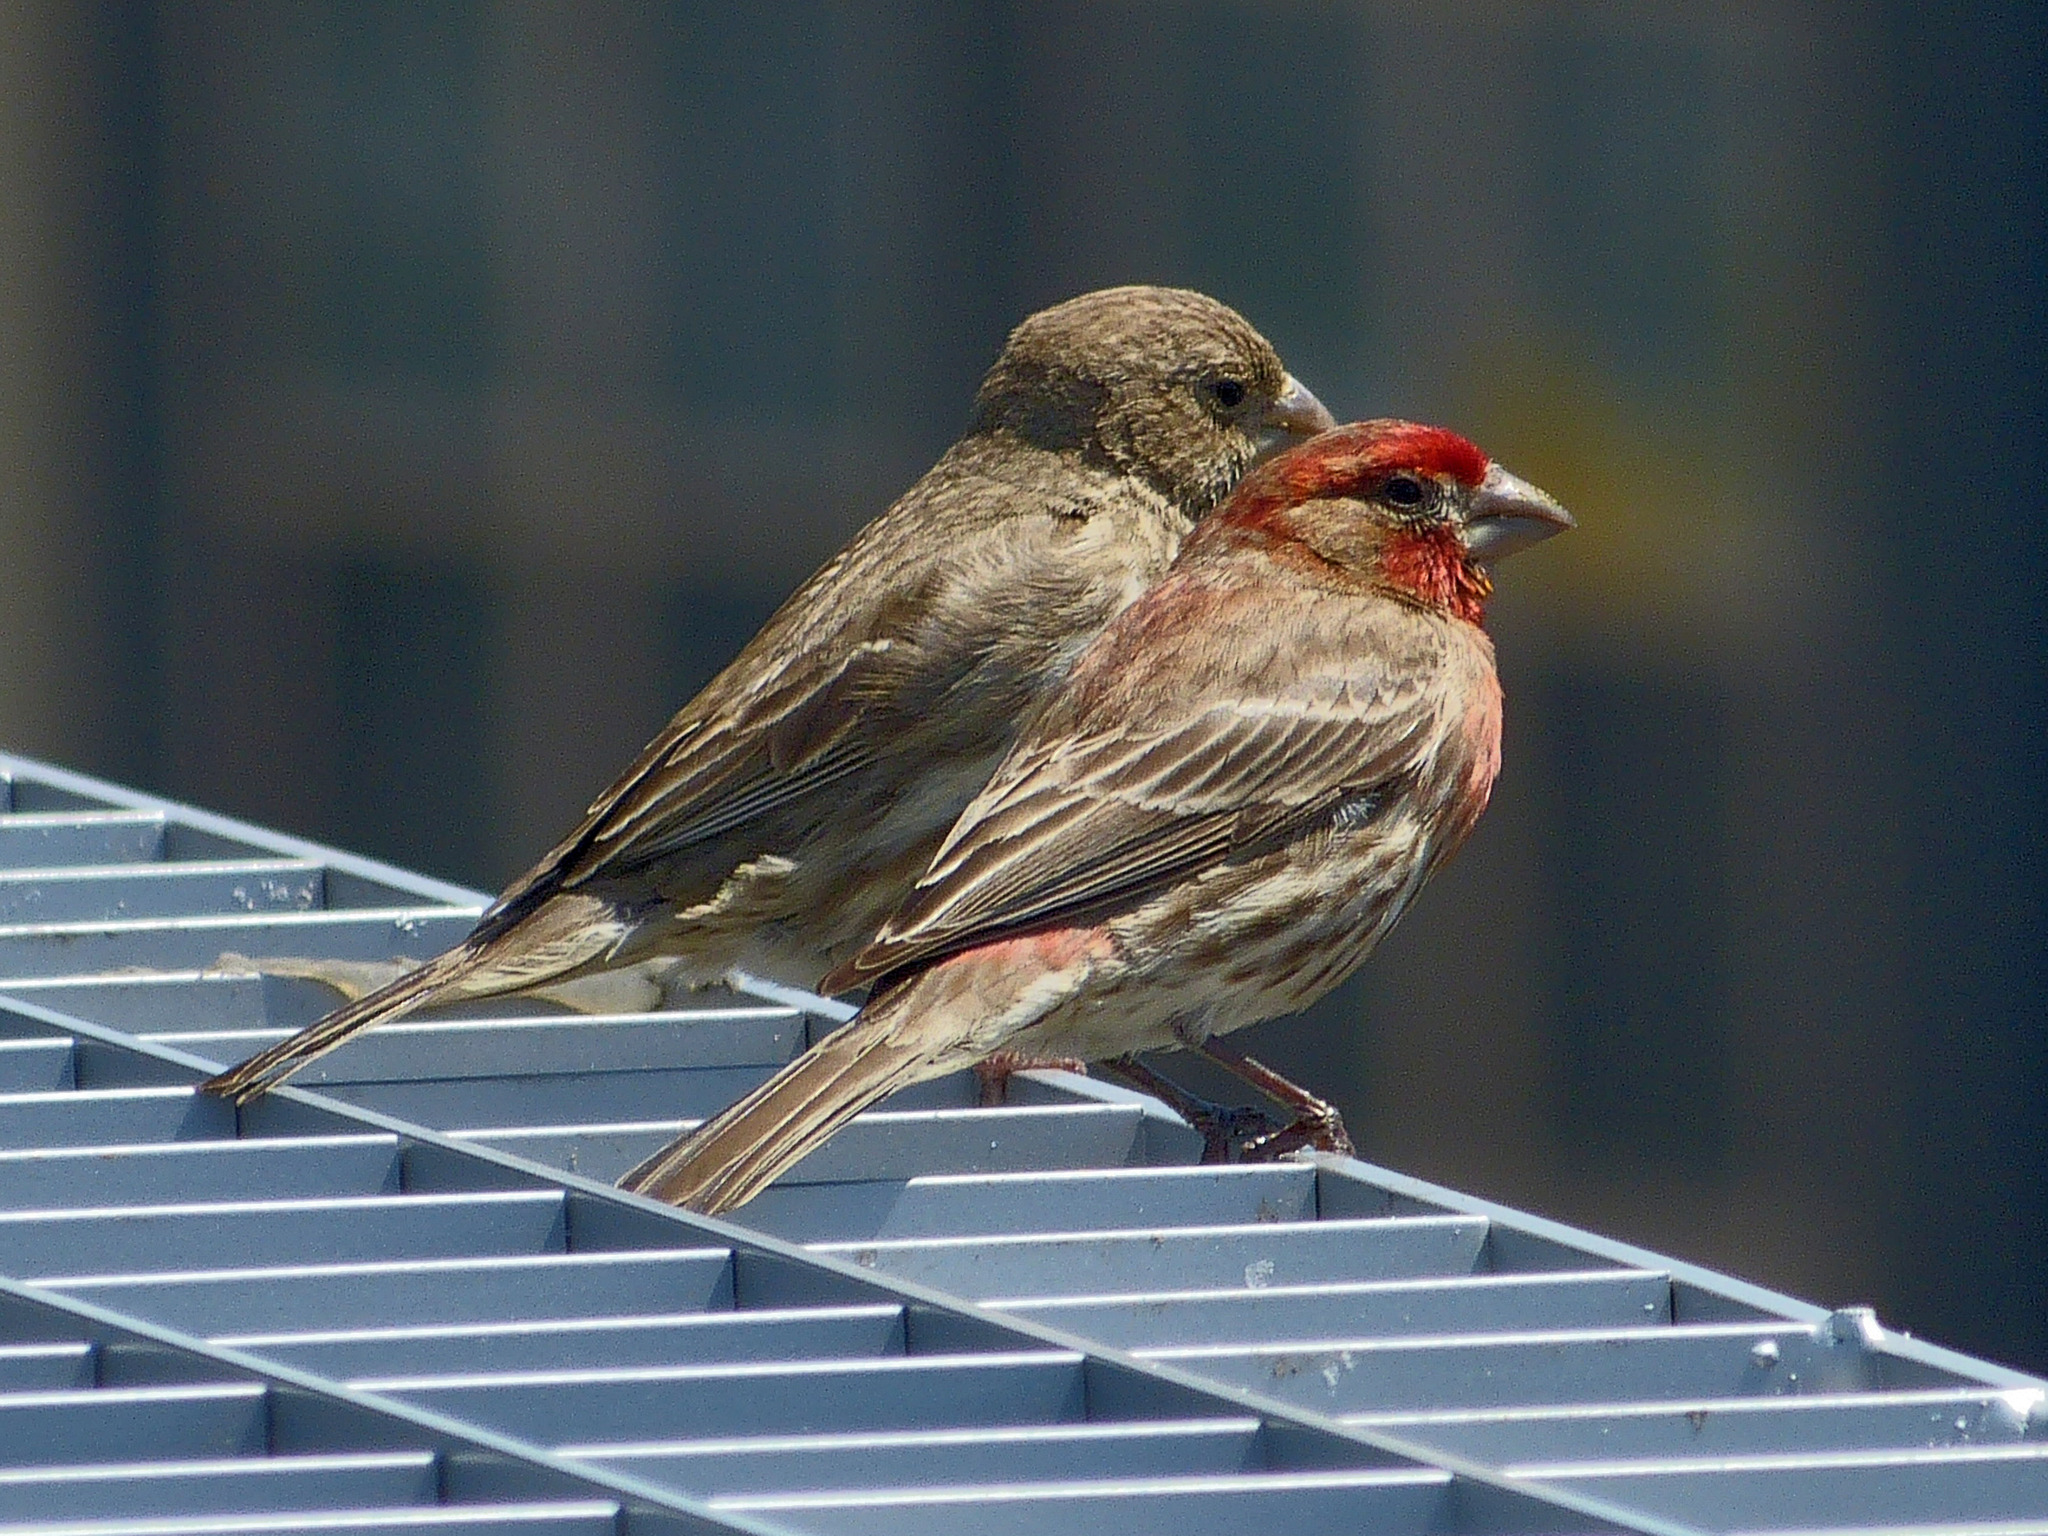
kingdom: Animalia
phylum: Chordata
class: Aves
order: Passeriformes
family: Fringillidae
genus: Haemorhous
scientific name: Haemorhous mexicanus
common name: House finch
